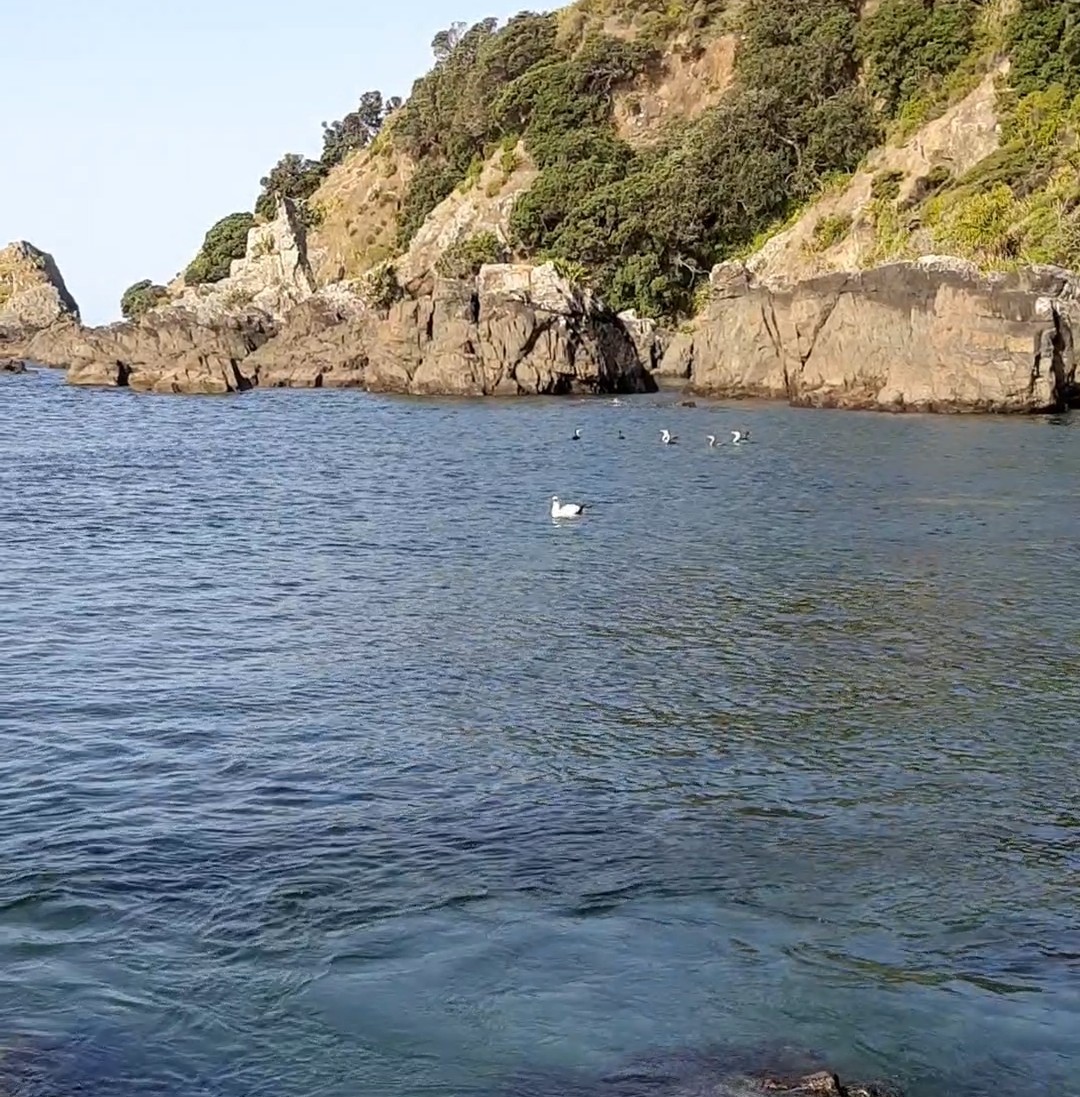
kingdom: Animalia
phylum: Chordata
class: Aves
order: Suliformes
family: Sulidae
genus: Morus
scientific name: Morus serrator
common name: Australasian gannet
